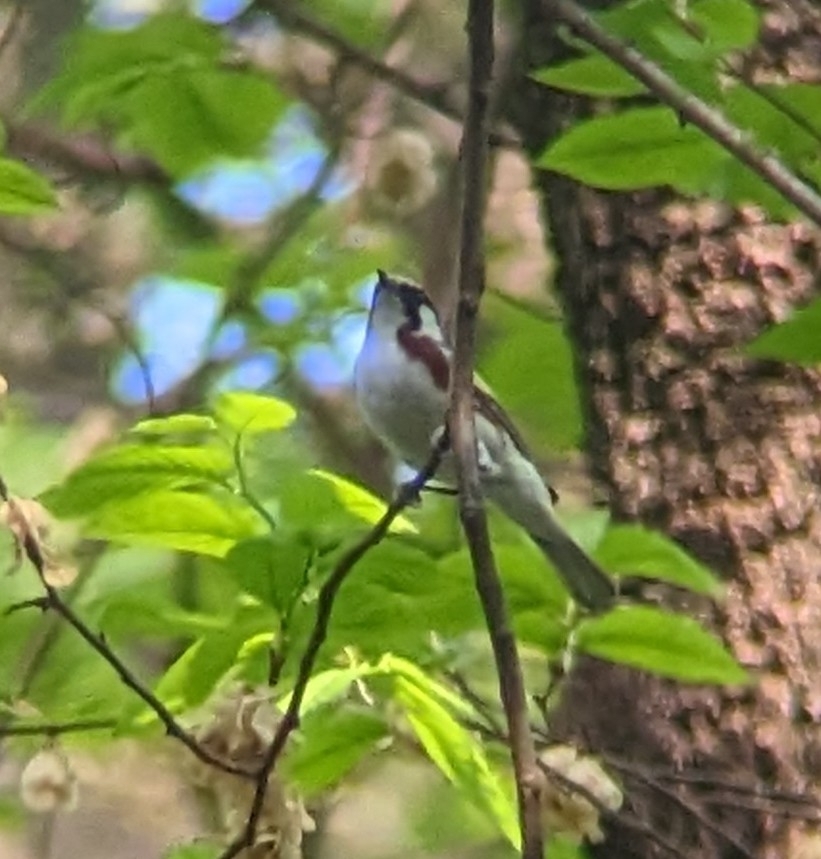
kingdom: Animalia
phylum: Chordata
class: Aves
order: Passeriformes
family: Parulidae
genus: Setophaga
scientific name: Setophaga pensylvanica
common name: Chestnut-sided warbler
